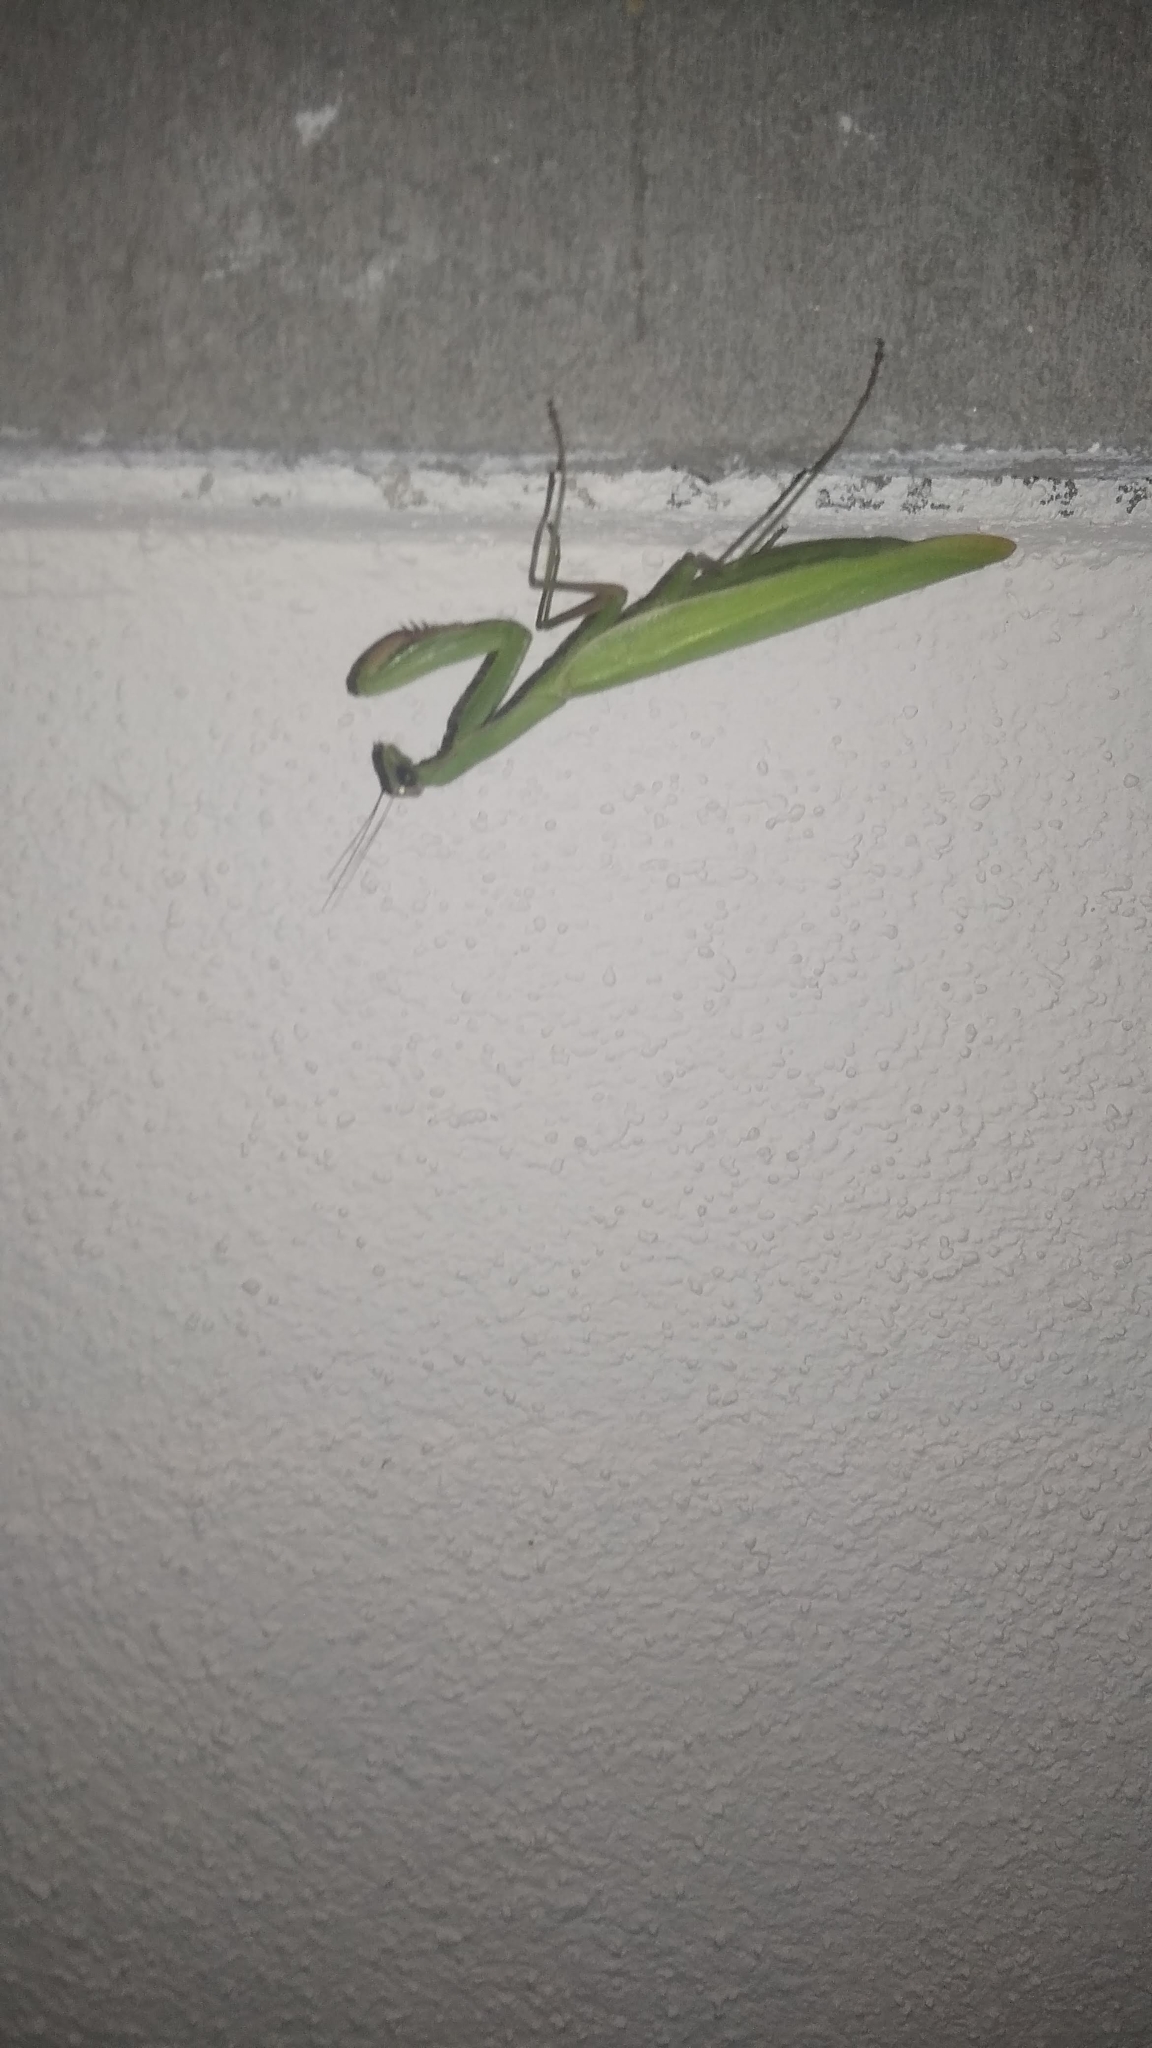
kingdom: Animalia
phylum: Arthropoda
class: Insecta
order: Mantodea
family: Mantidae
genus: Mantis
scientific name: Mantis religiosa
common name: Praying mantis
